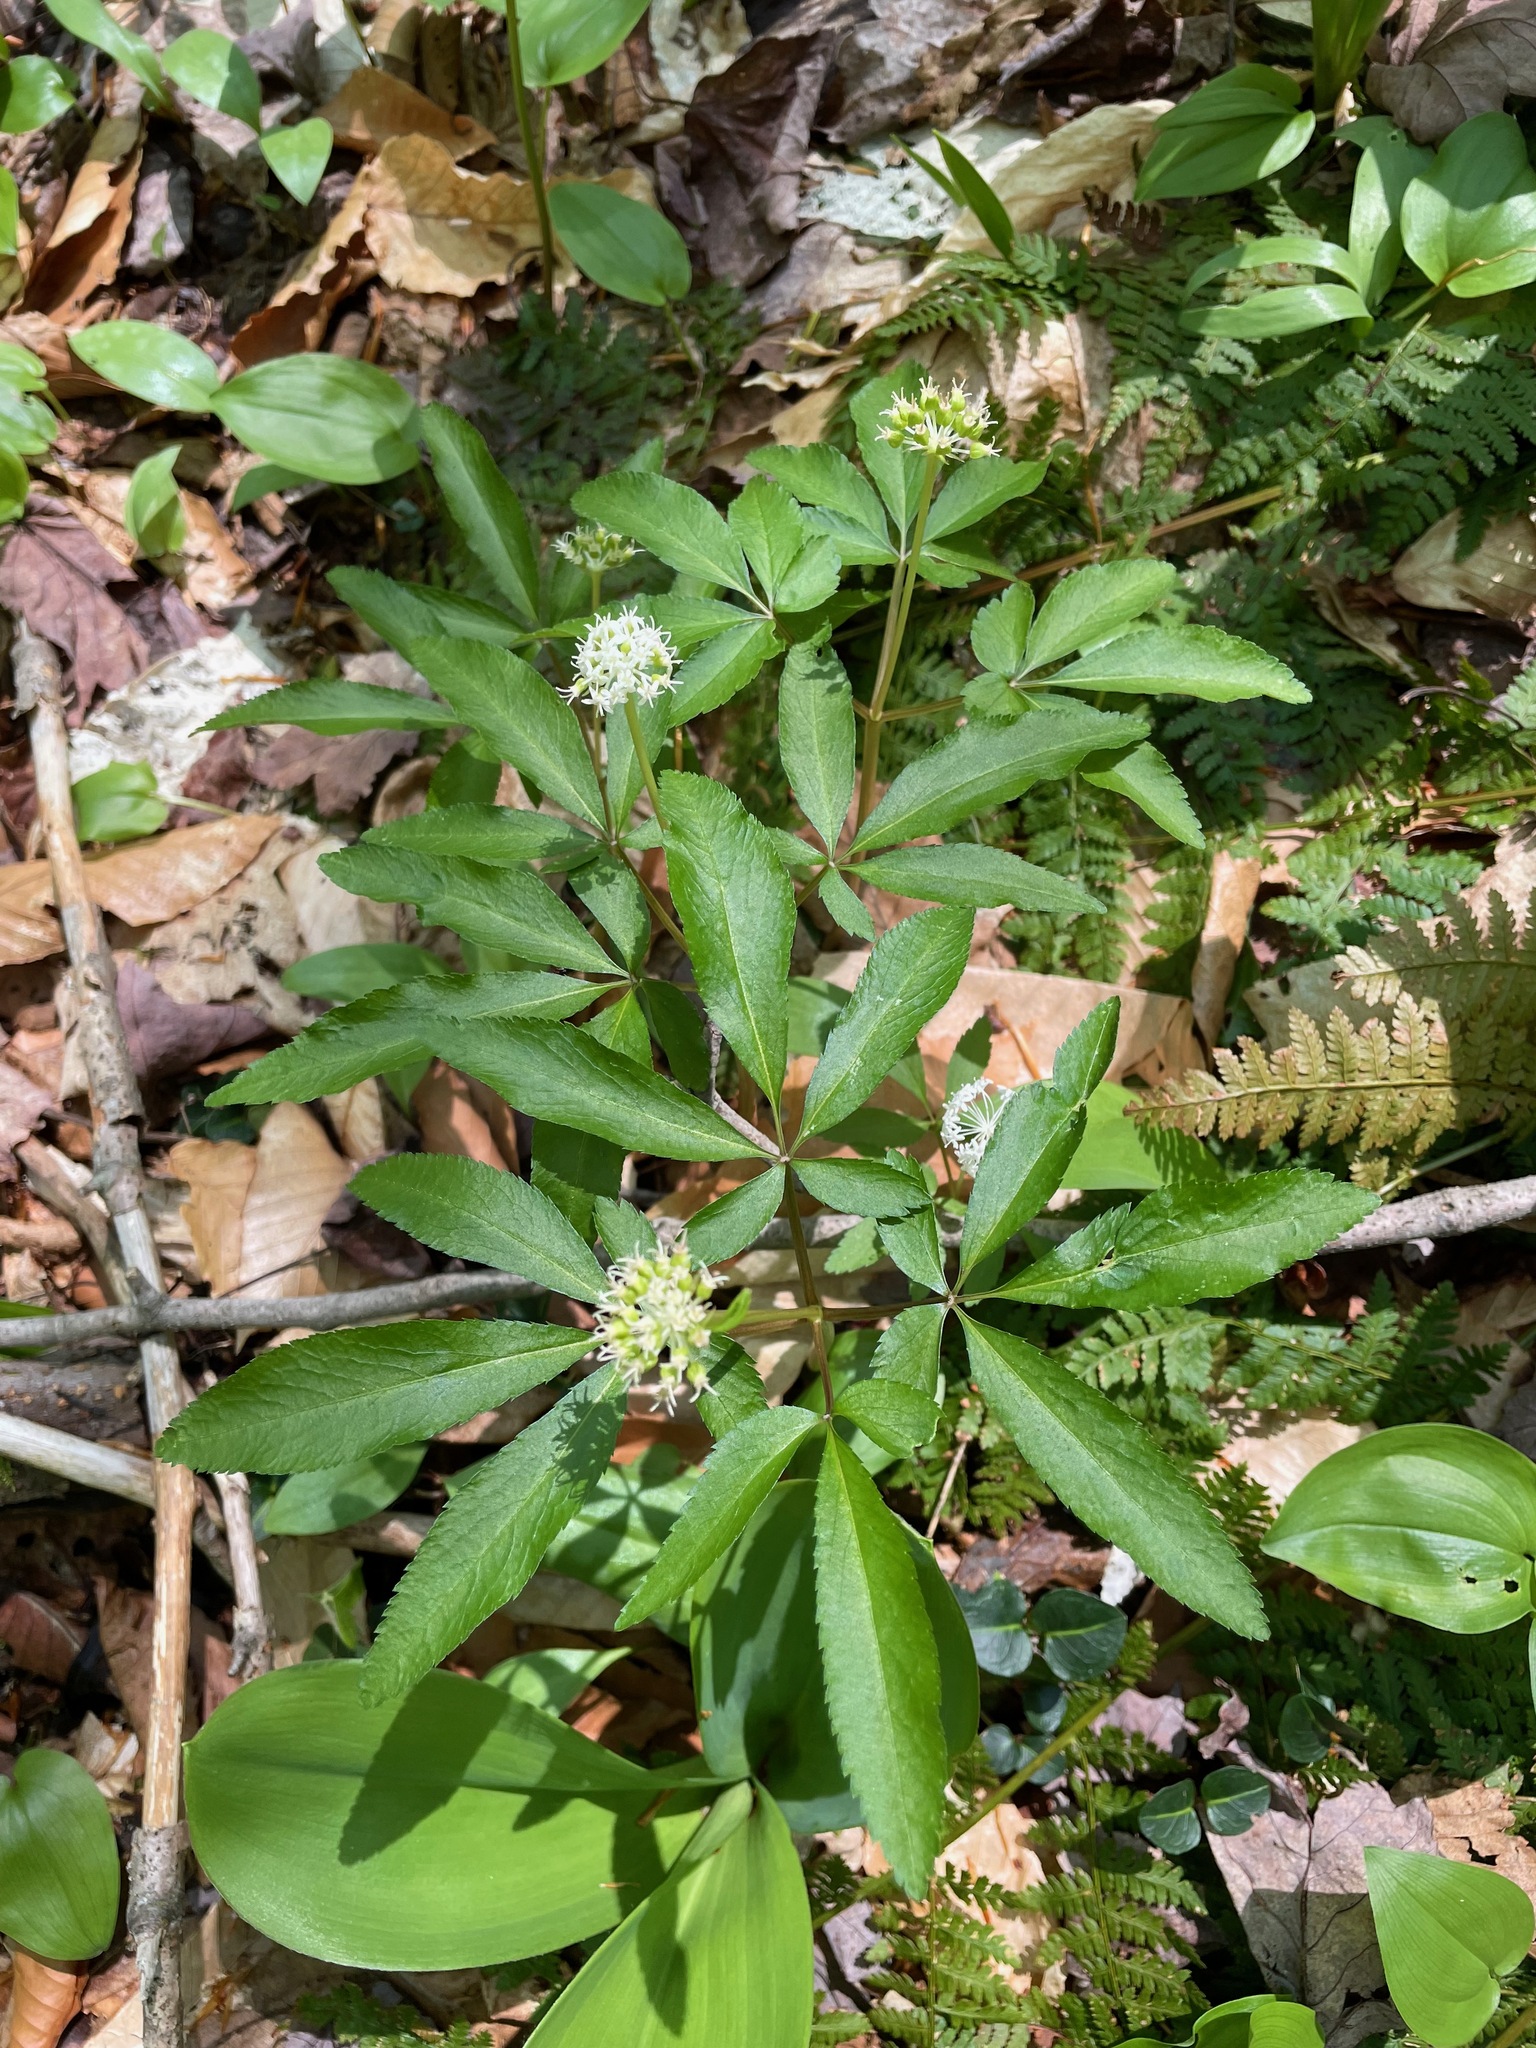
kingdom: Plantae
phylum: Tracheophyta
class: Magnoliopsida
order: Apiales
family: Araliaceae
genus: Panax
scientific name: Panax trifolius
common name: Dwarf ginseng
